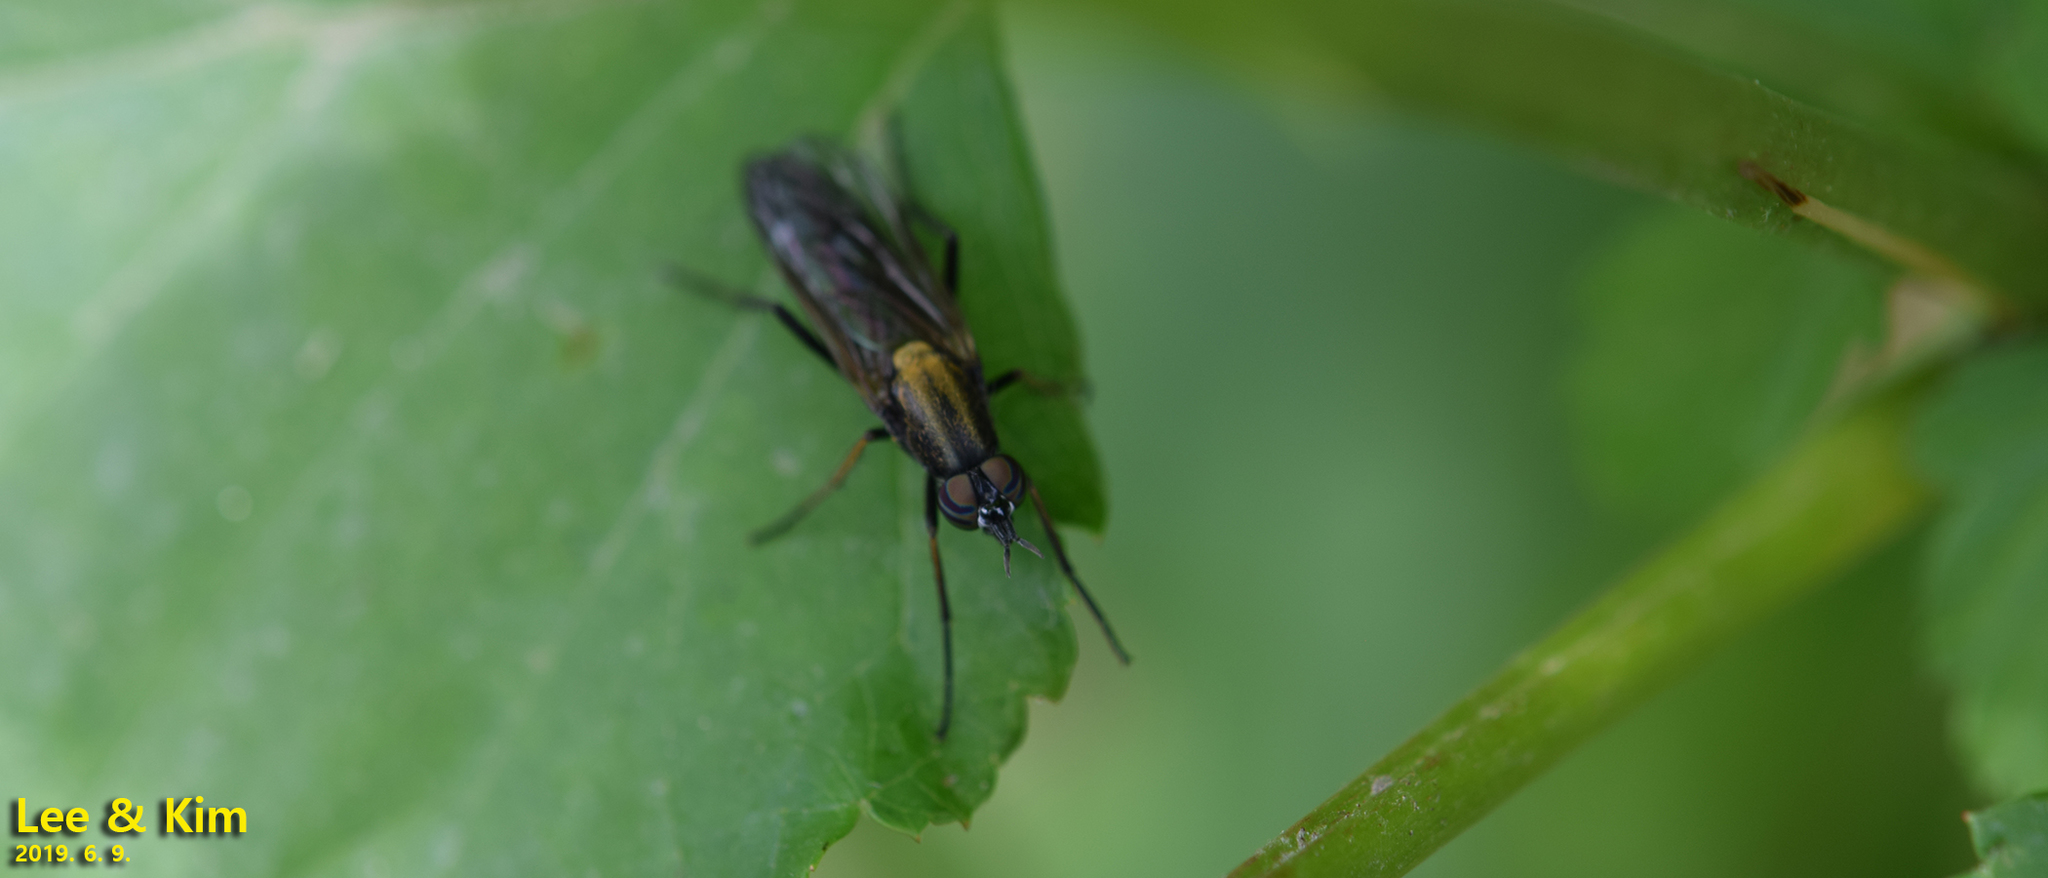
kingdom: Animalia
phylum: Arthropoda
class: Insecta
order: Diptera
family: Therevidae
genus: Procyclotelus
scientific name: Procyclotelus elegans
